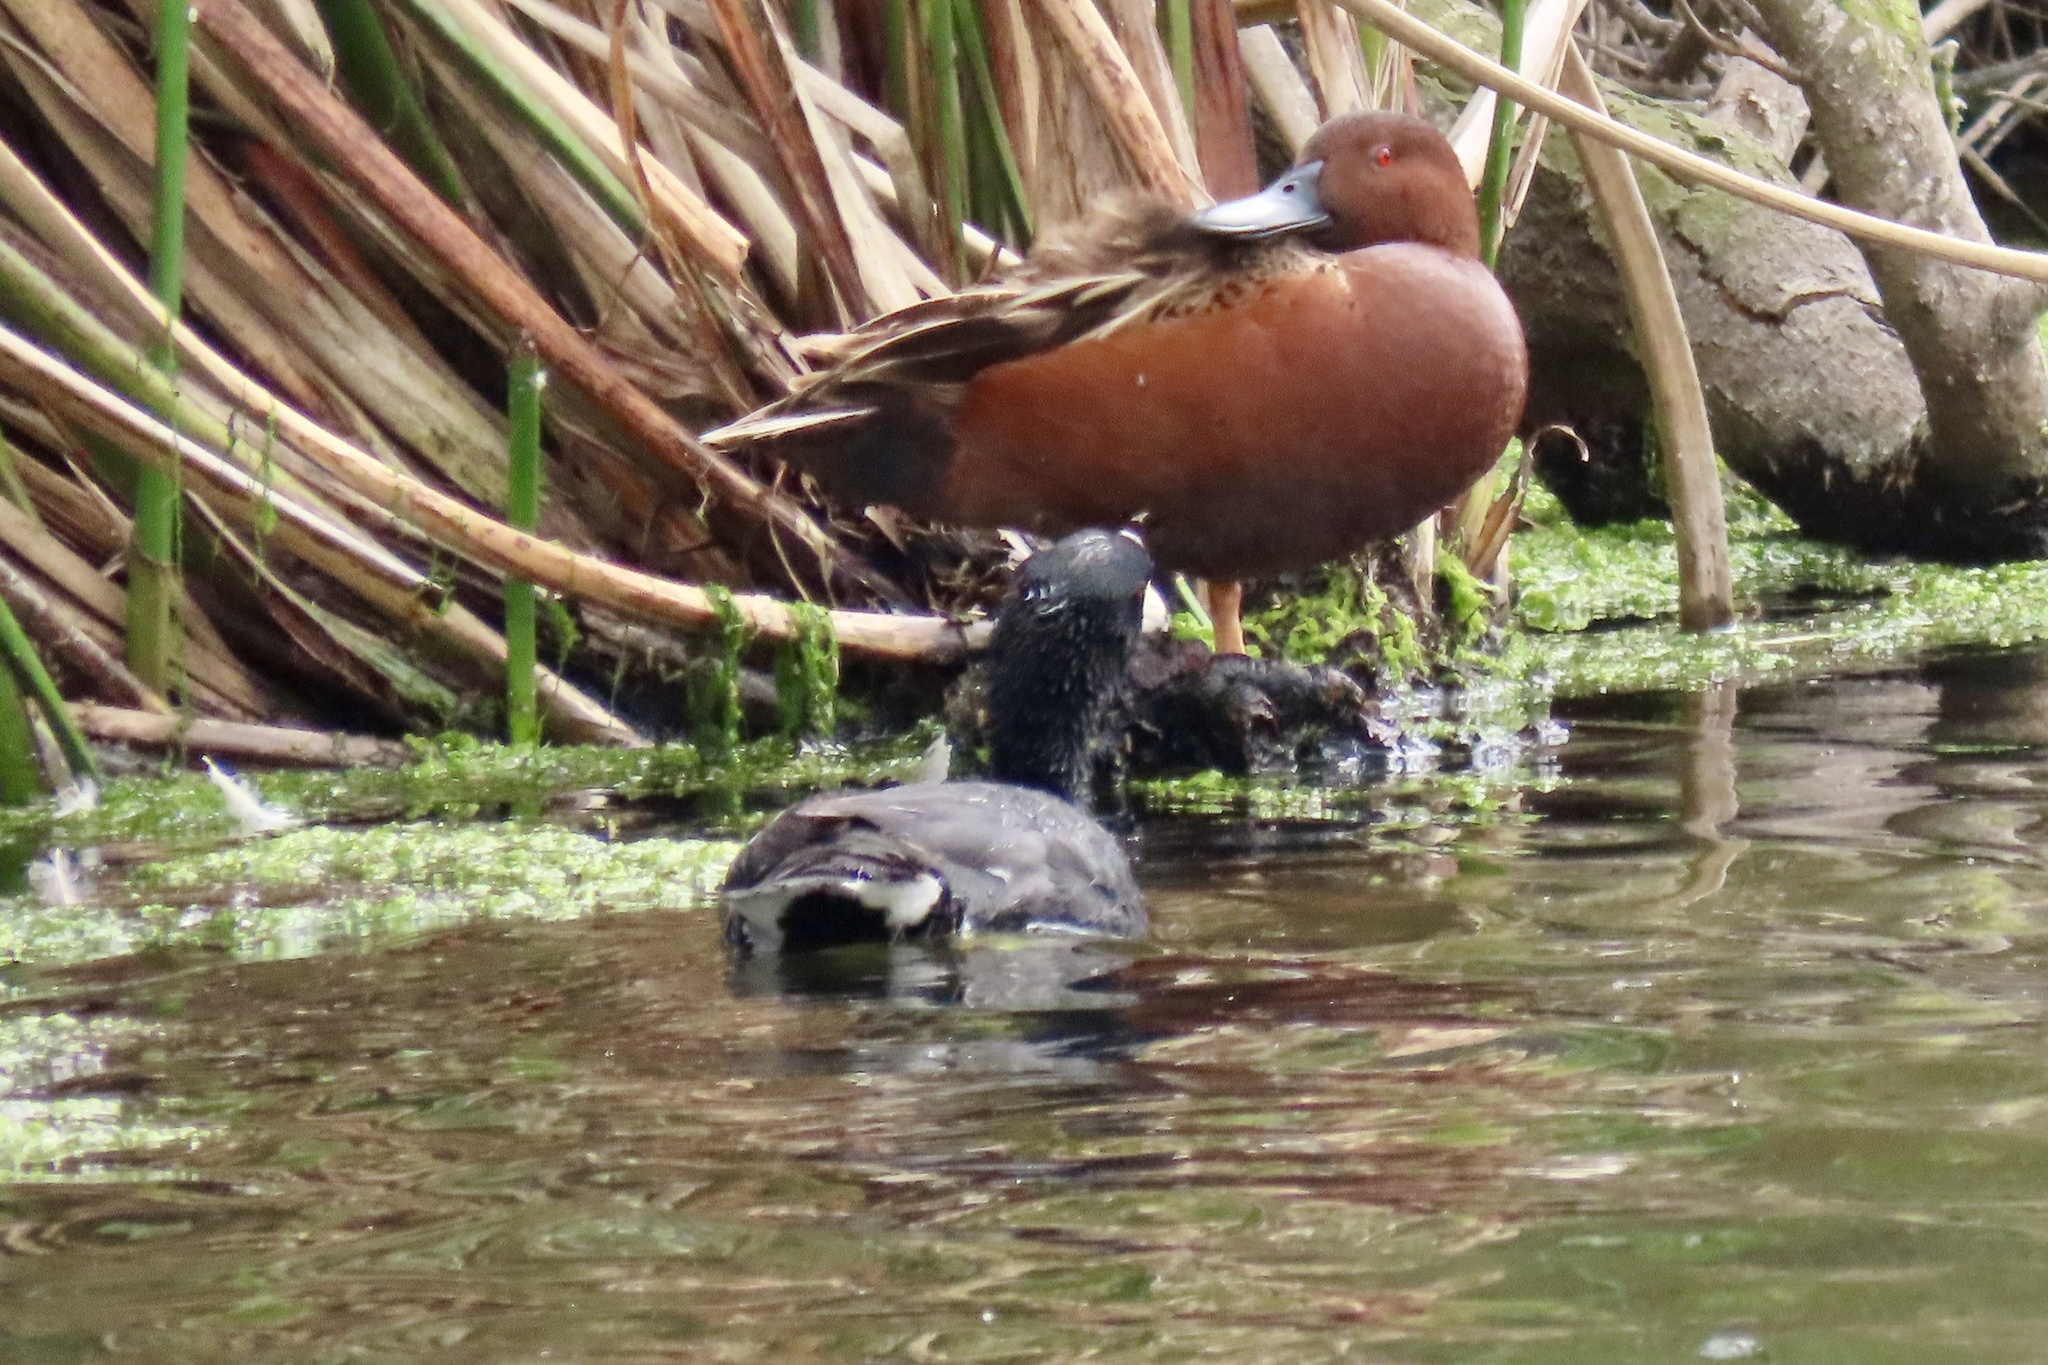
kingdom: Animalia
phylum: Chordata
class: Aves
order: Gruiformes
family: Rallidae
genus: Fulica
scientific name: Fulica americana
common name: American coot
